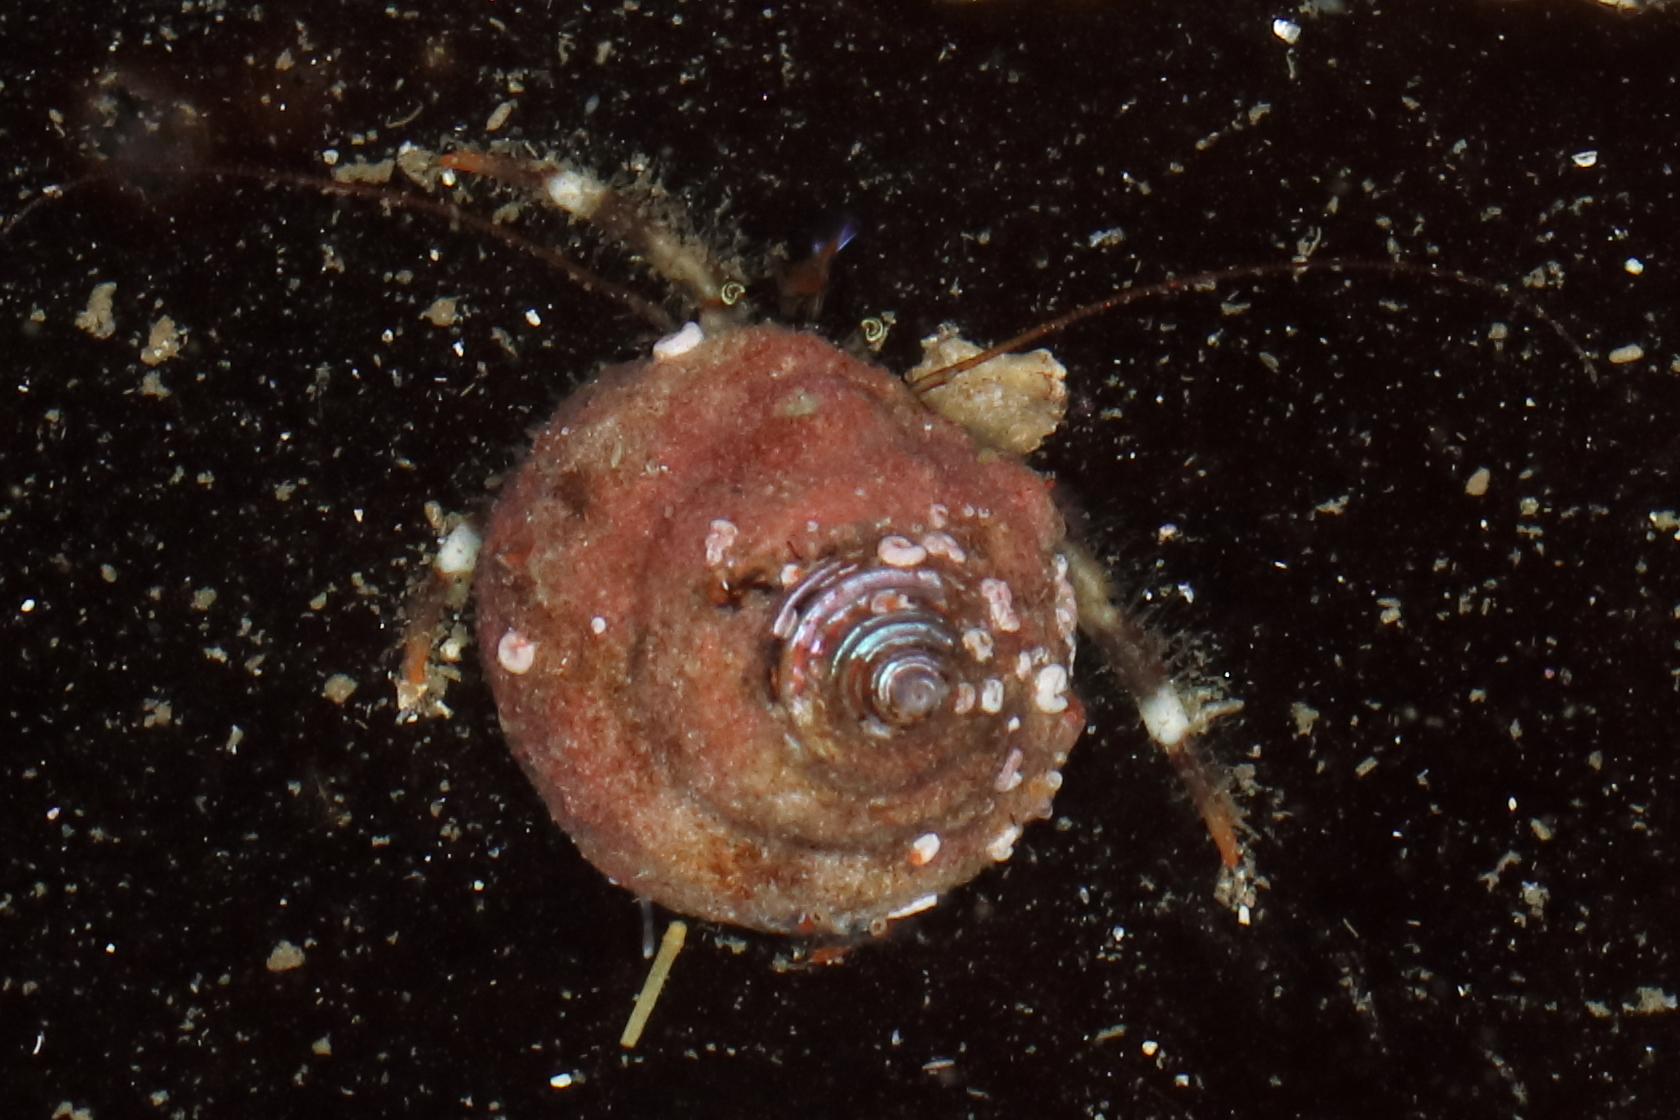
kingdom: Animalia
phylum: Arthropoda
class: Malacostraca
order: Decapoda
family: Paguridae
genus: Pagurus
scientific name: Pagurus caurinus
